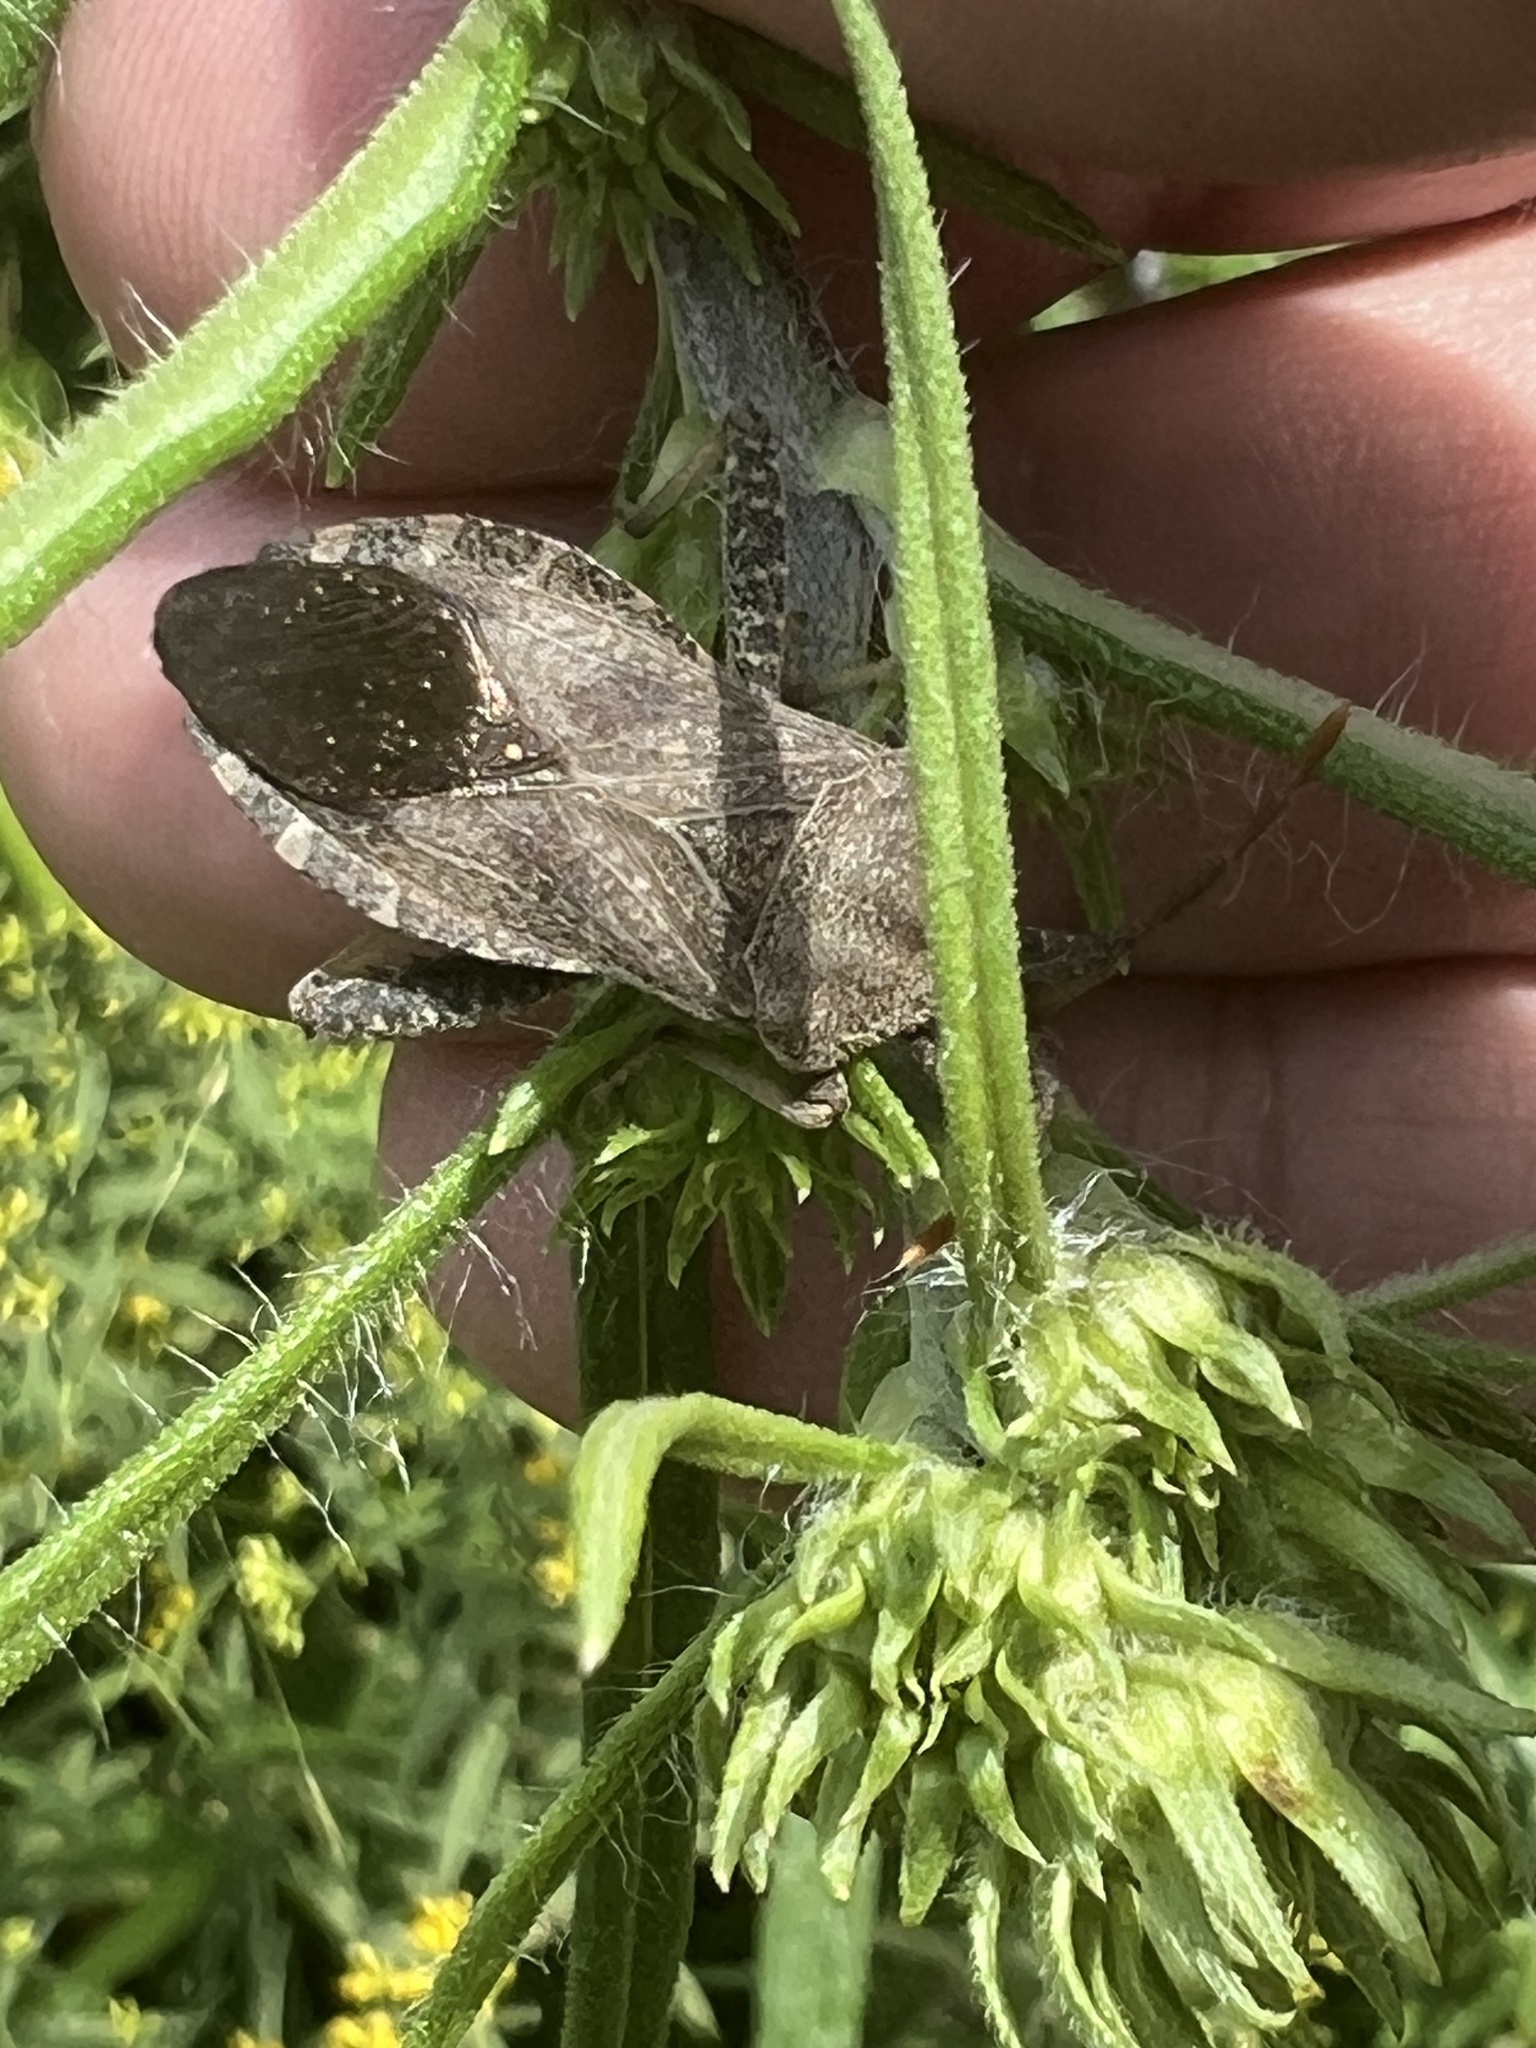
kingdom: Animalia
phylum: Arthropoda
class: Insecta
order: Hemiptera
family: Coreidae
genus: Piezogaster
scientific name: Piezogaster calcarator
